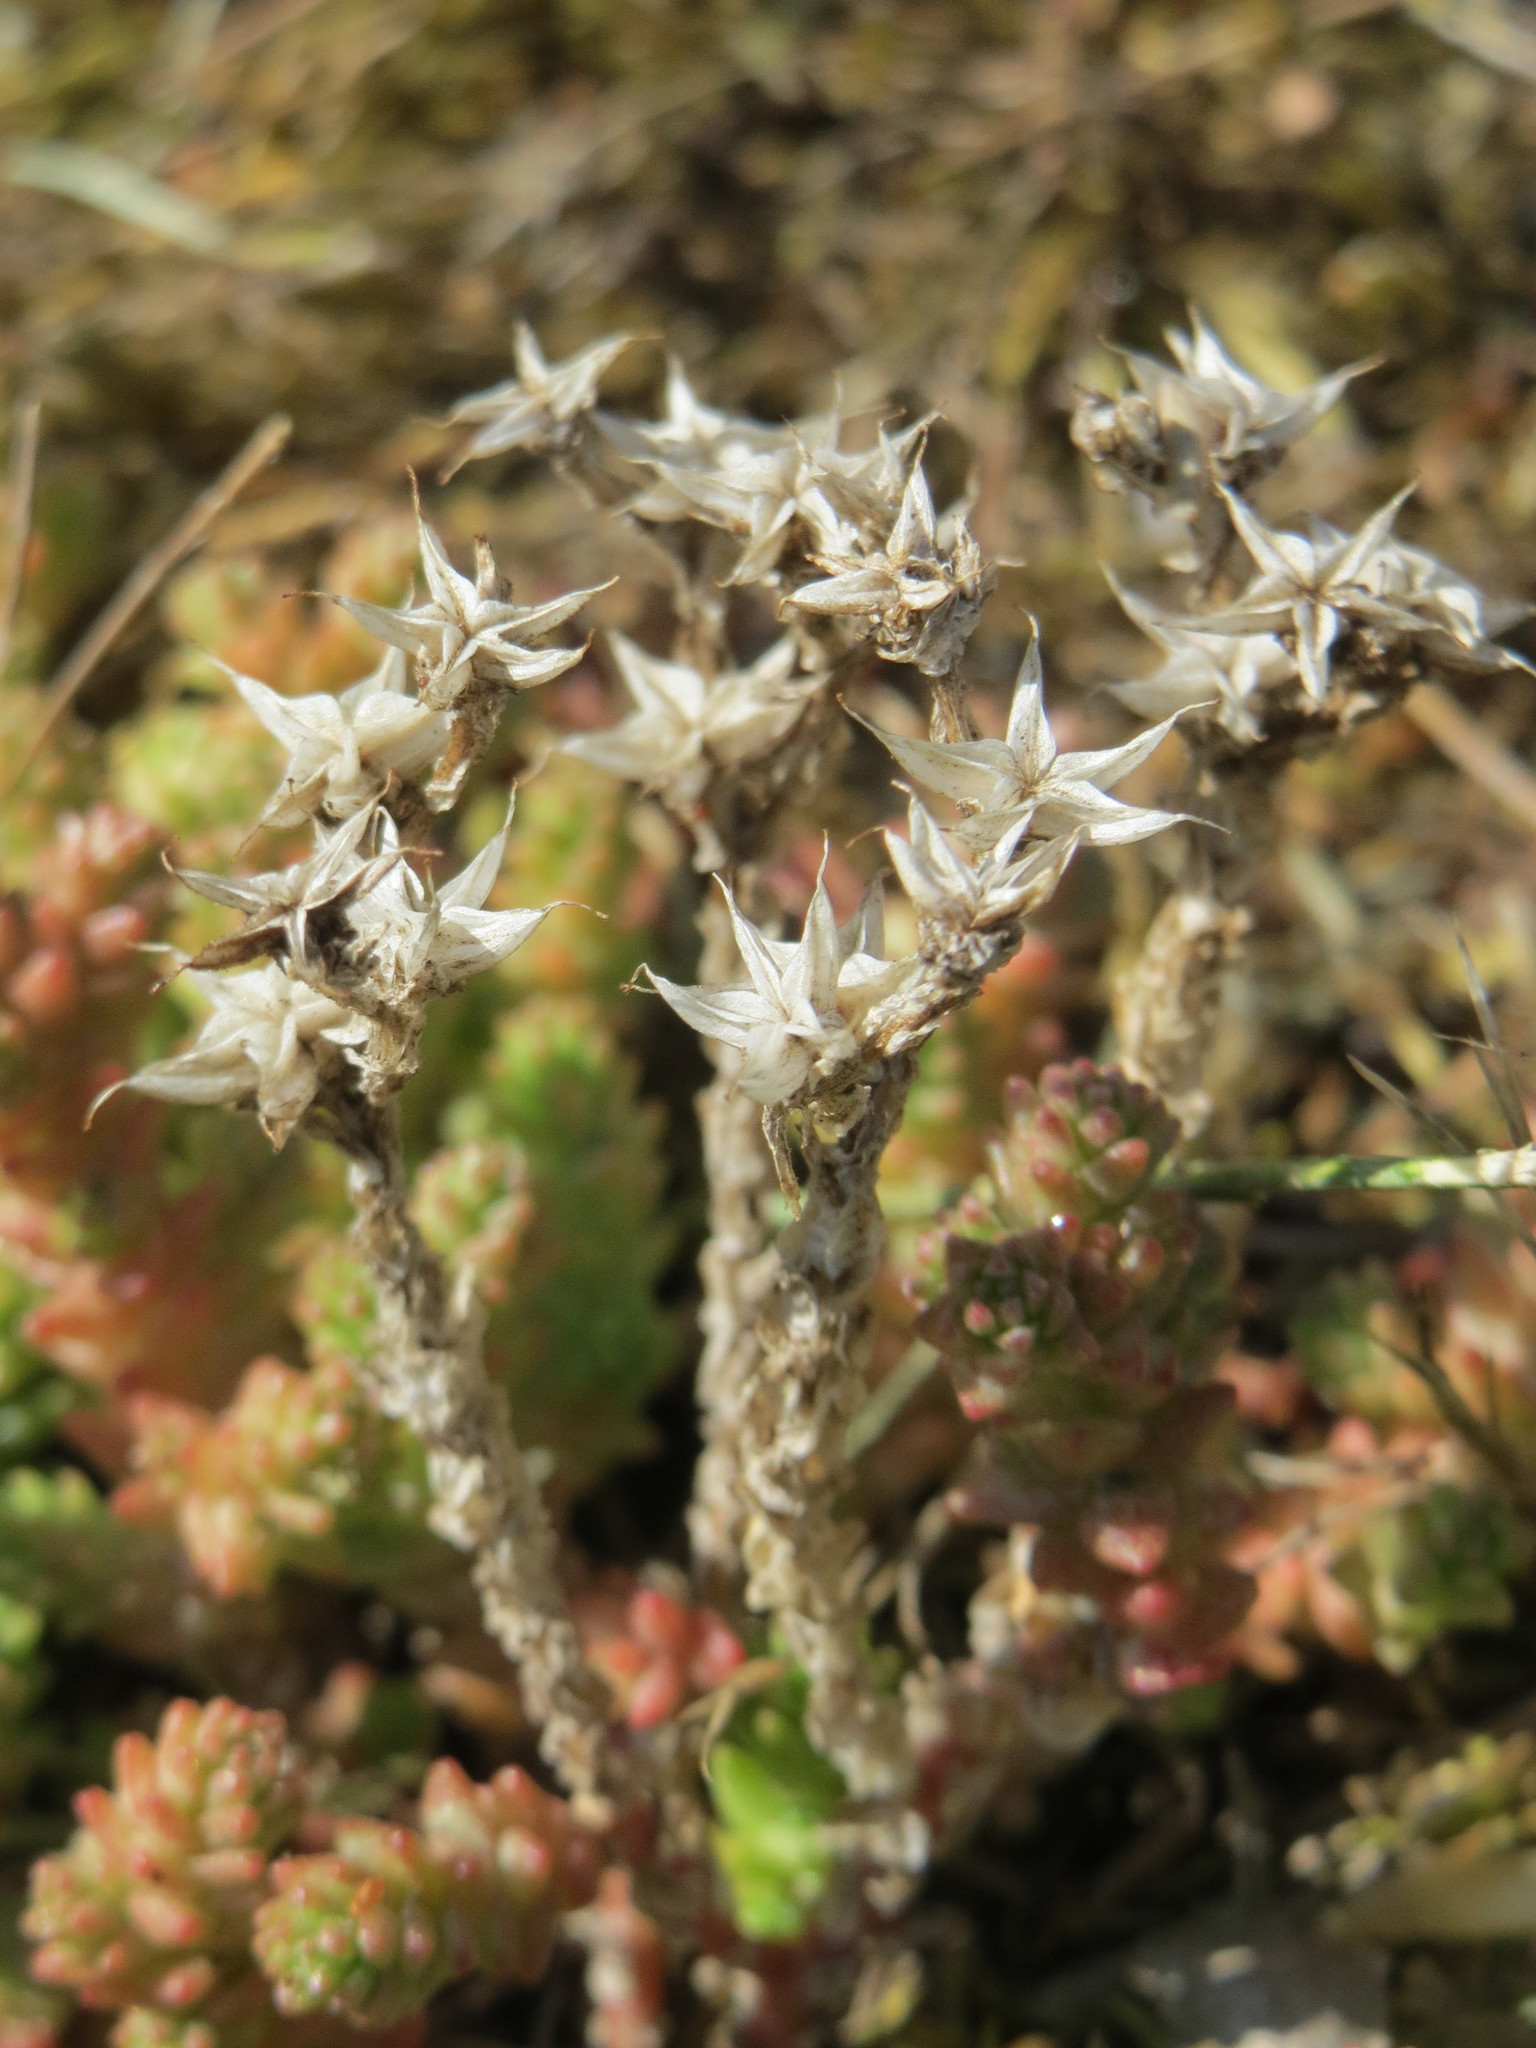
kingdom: Plantae
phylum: Tracheophyta
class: Magnoliopsida
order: Saxifragales
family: Crassulaceae
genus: Sedum
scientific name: Sedum acre
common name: Biting stonecrop
